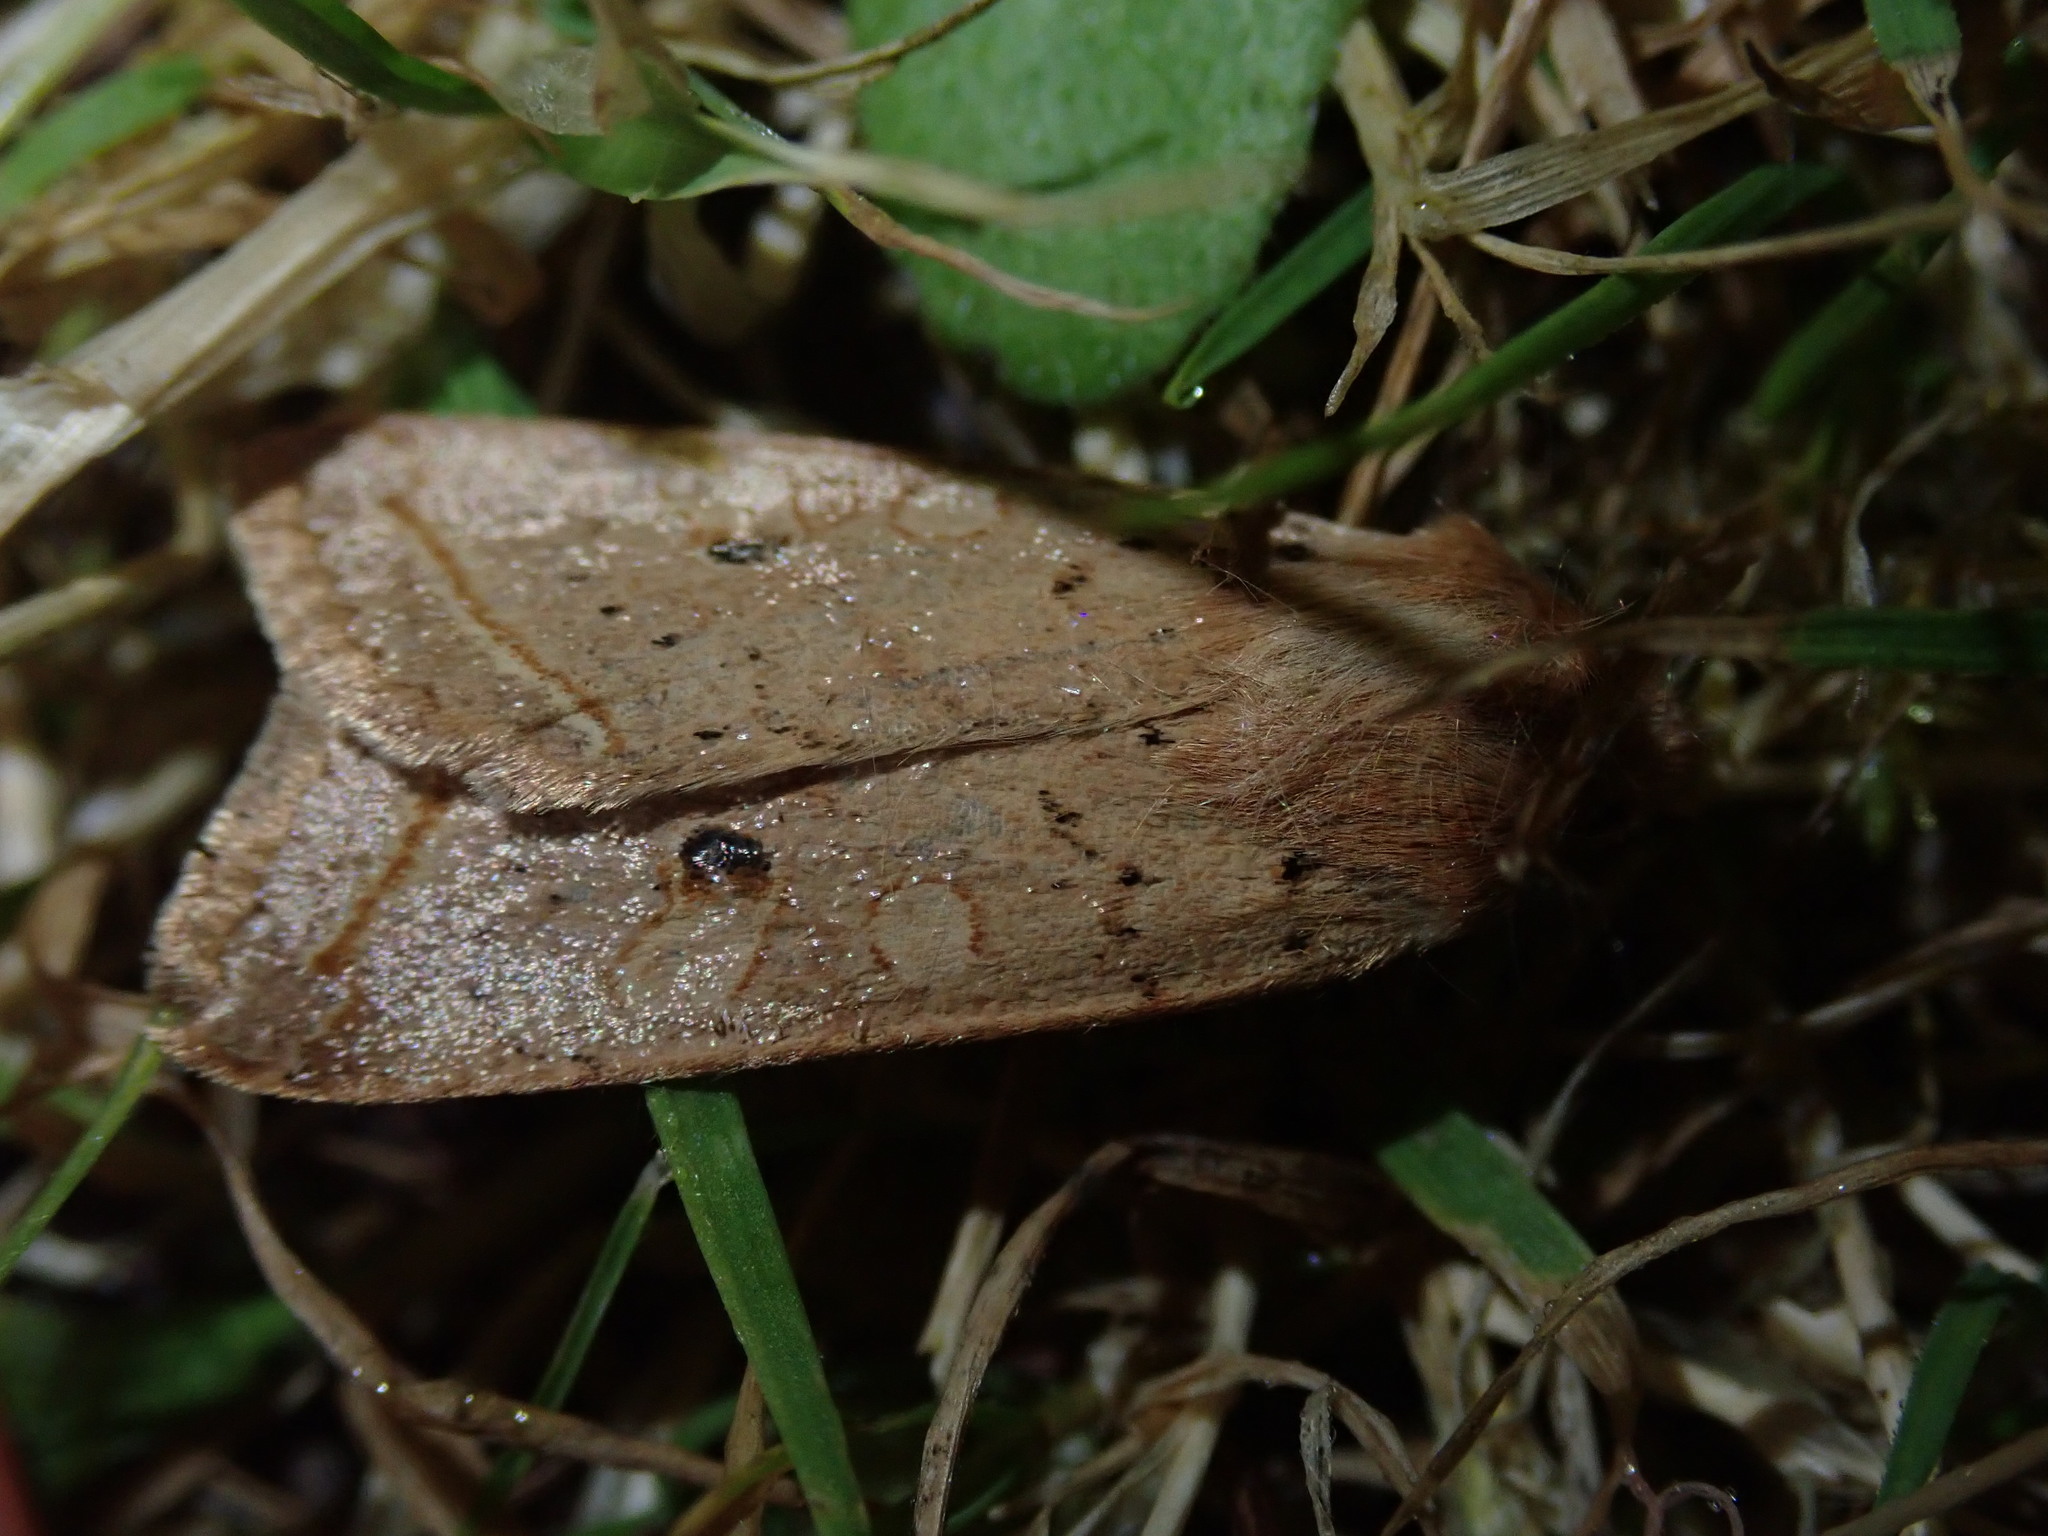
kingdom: Animalia
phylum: Arthropoda
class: Insecta
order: Lepidoptera
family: Noctuidae
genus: Agrochola
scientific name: Agrochola macilenta
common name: Yellow-line quaker
